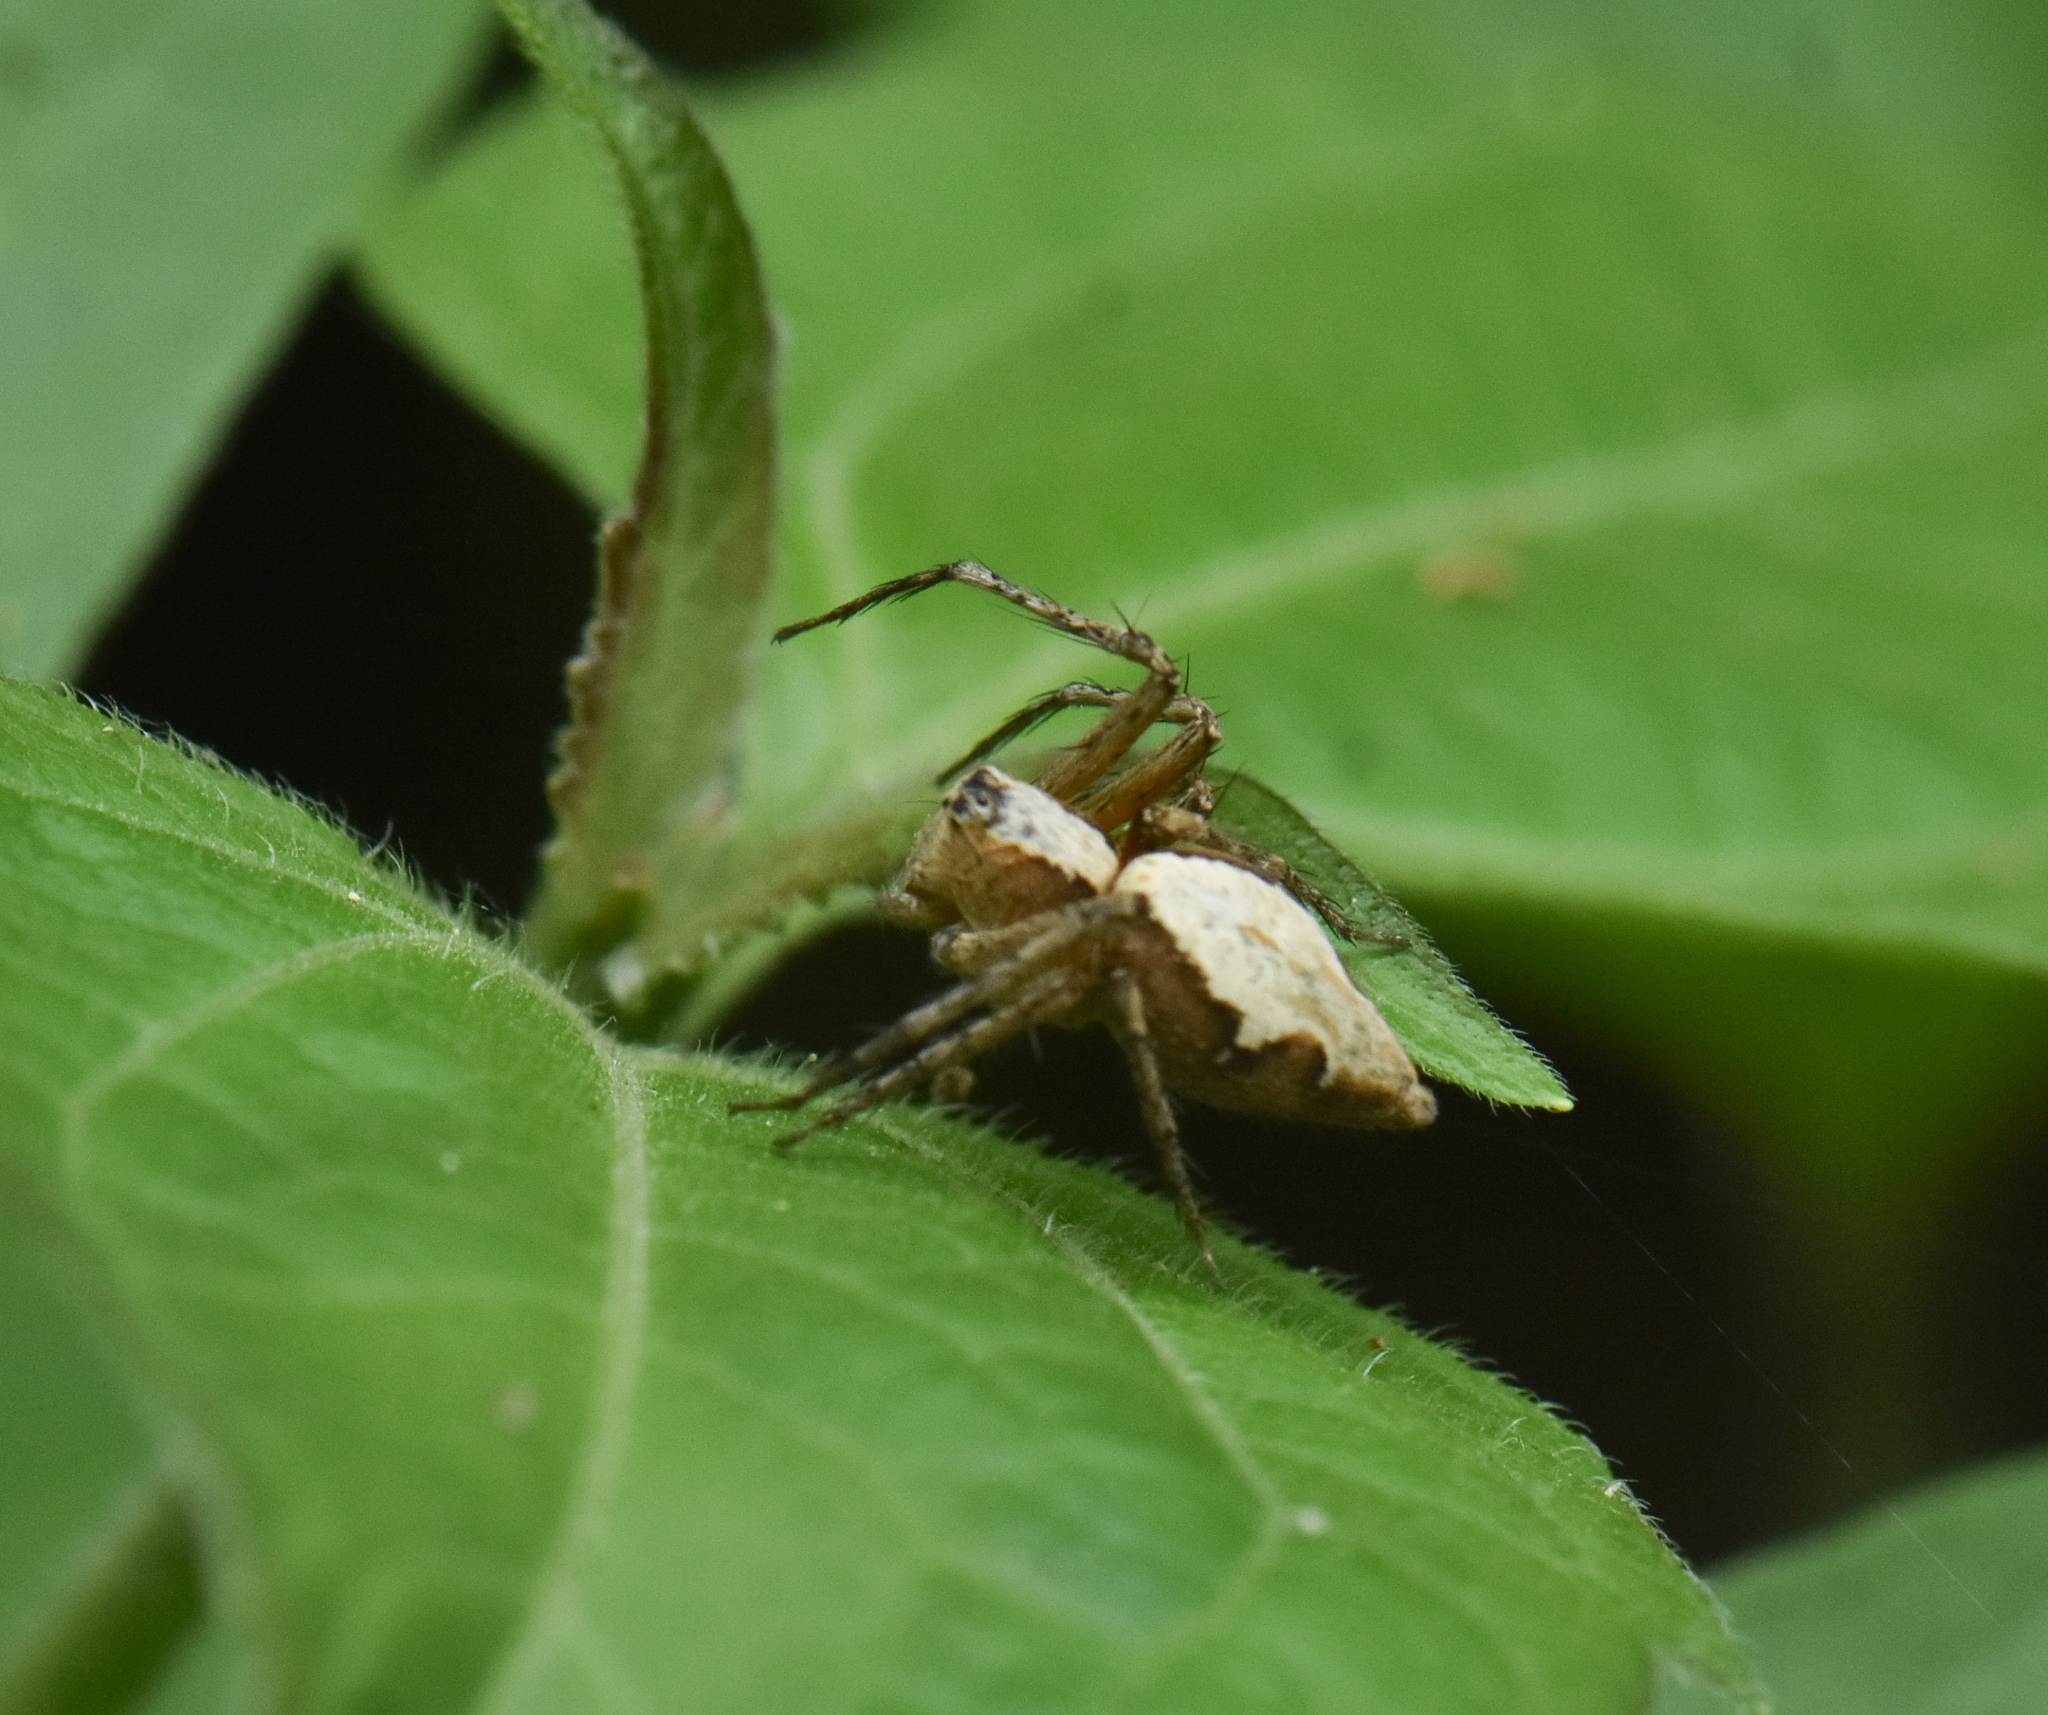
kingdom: Animalia
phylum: Arthropoda
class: Arachnida
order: Araneae
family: Oxyopidae
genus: Oxyopes
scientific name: Oxyopes shweta
